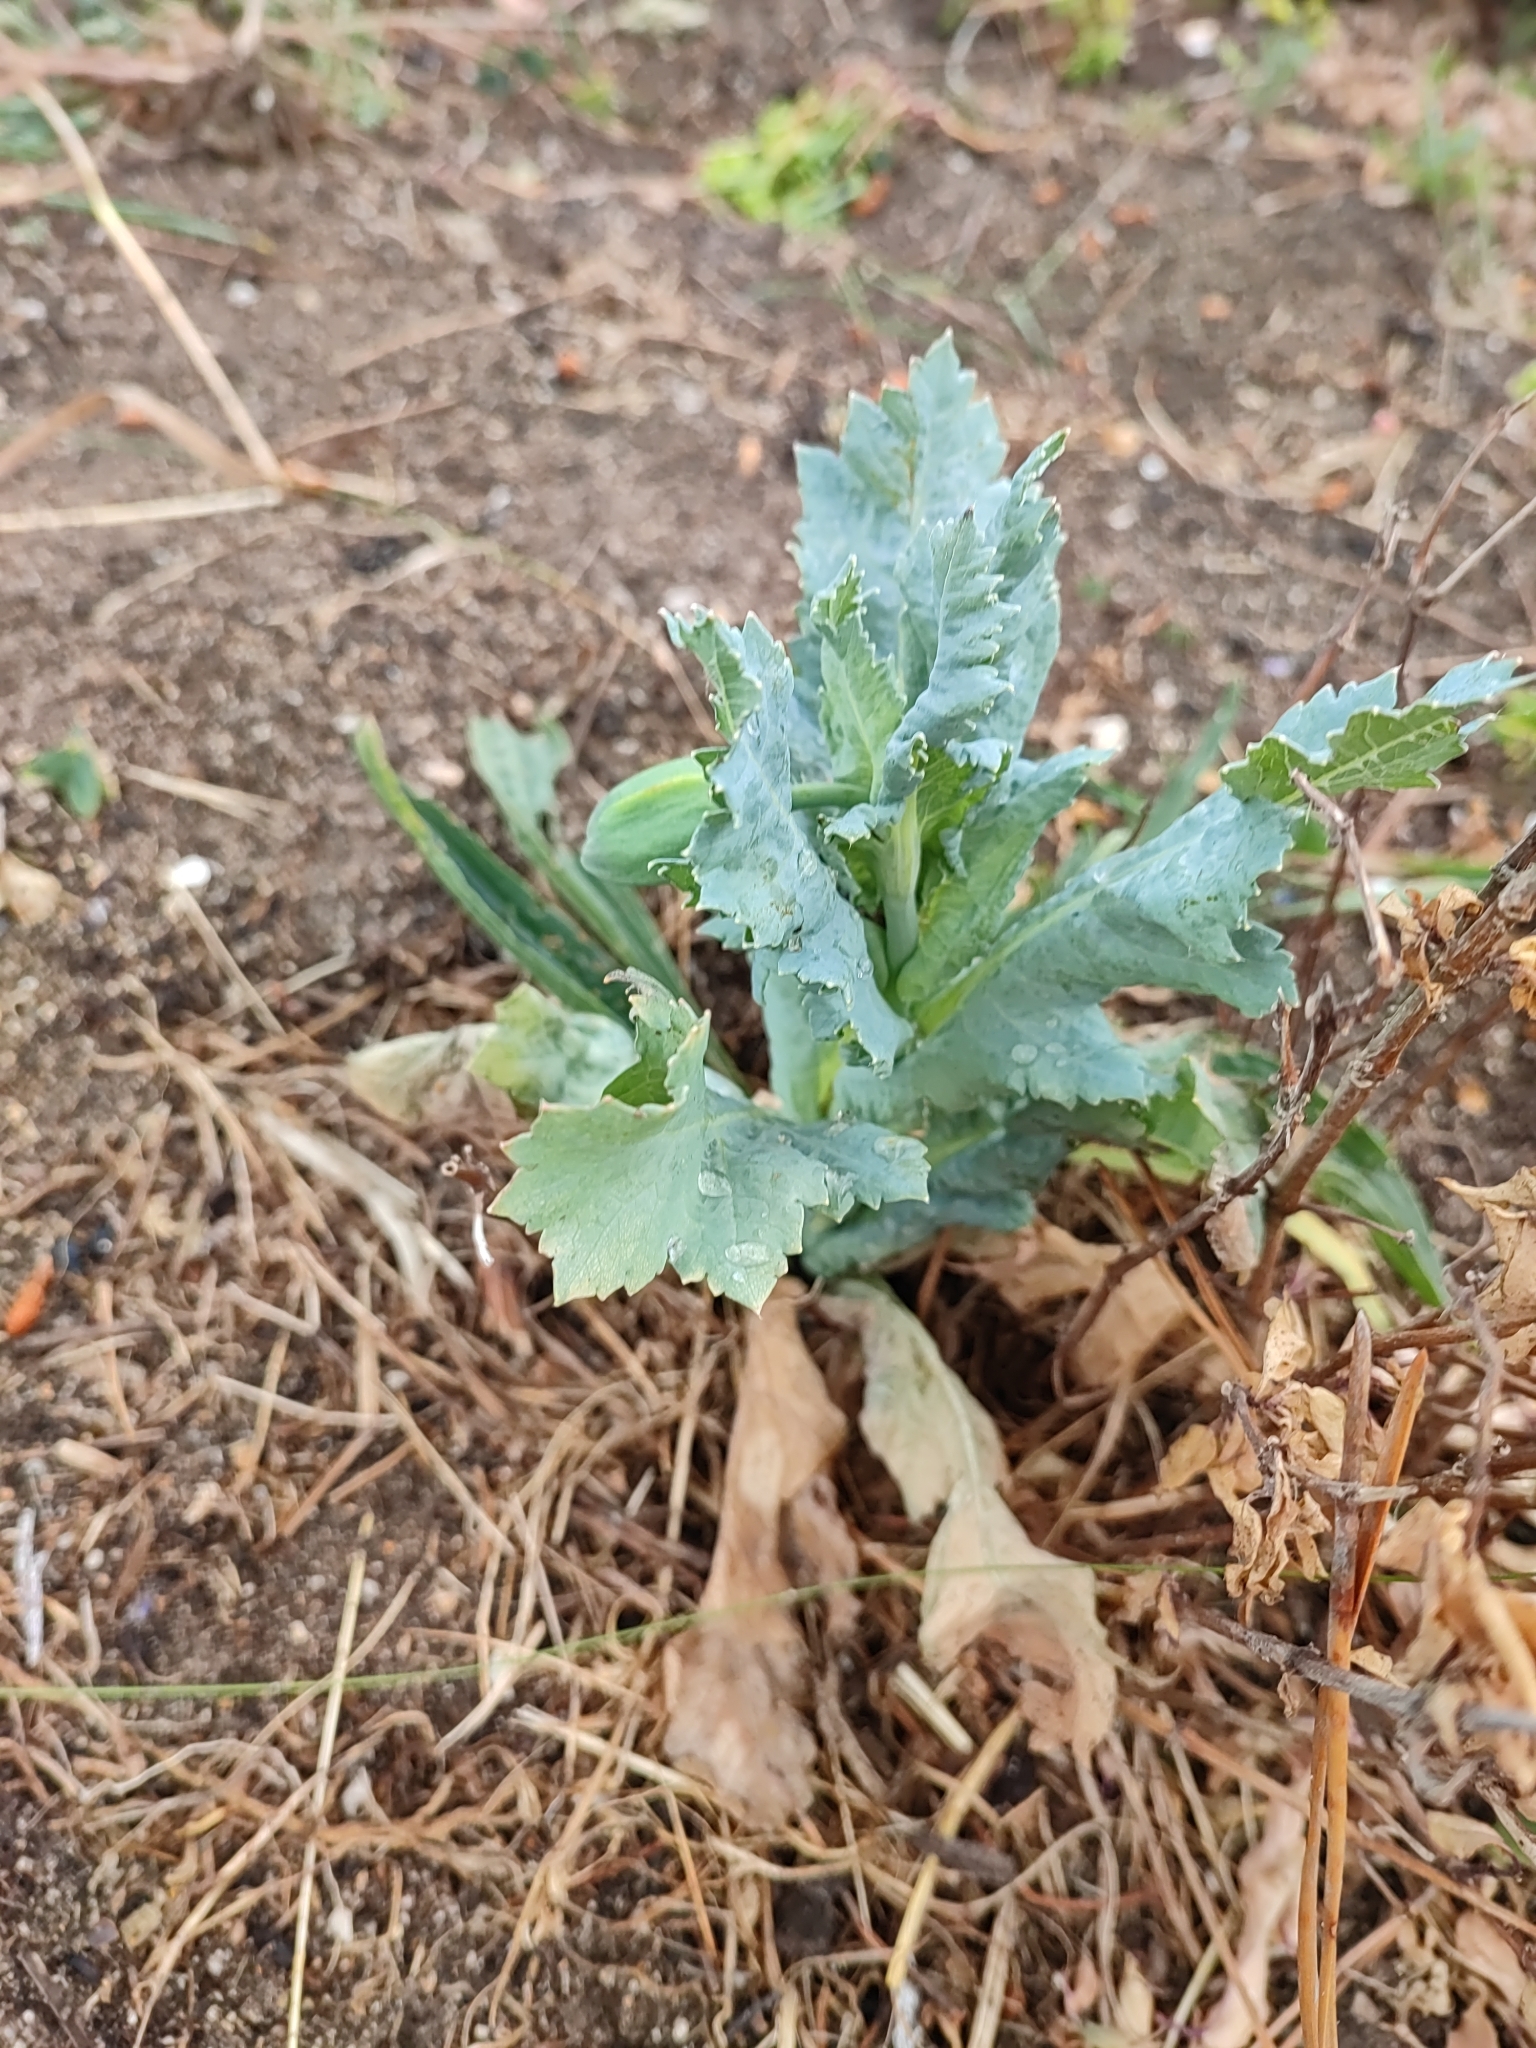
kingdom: Plantae
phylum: Tracheophyta
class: Magnoliopsida
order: Ranunculales
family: Papaveraceae
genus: Papaver
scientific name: Papaver somniferum
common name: Opium poppy
